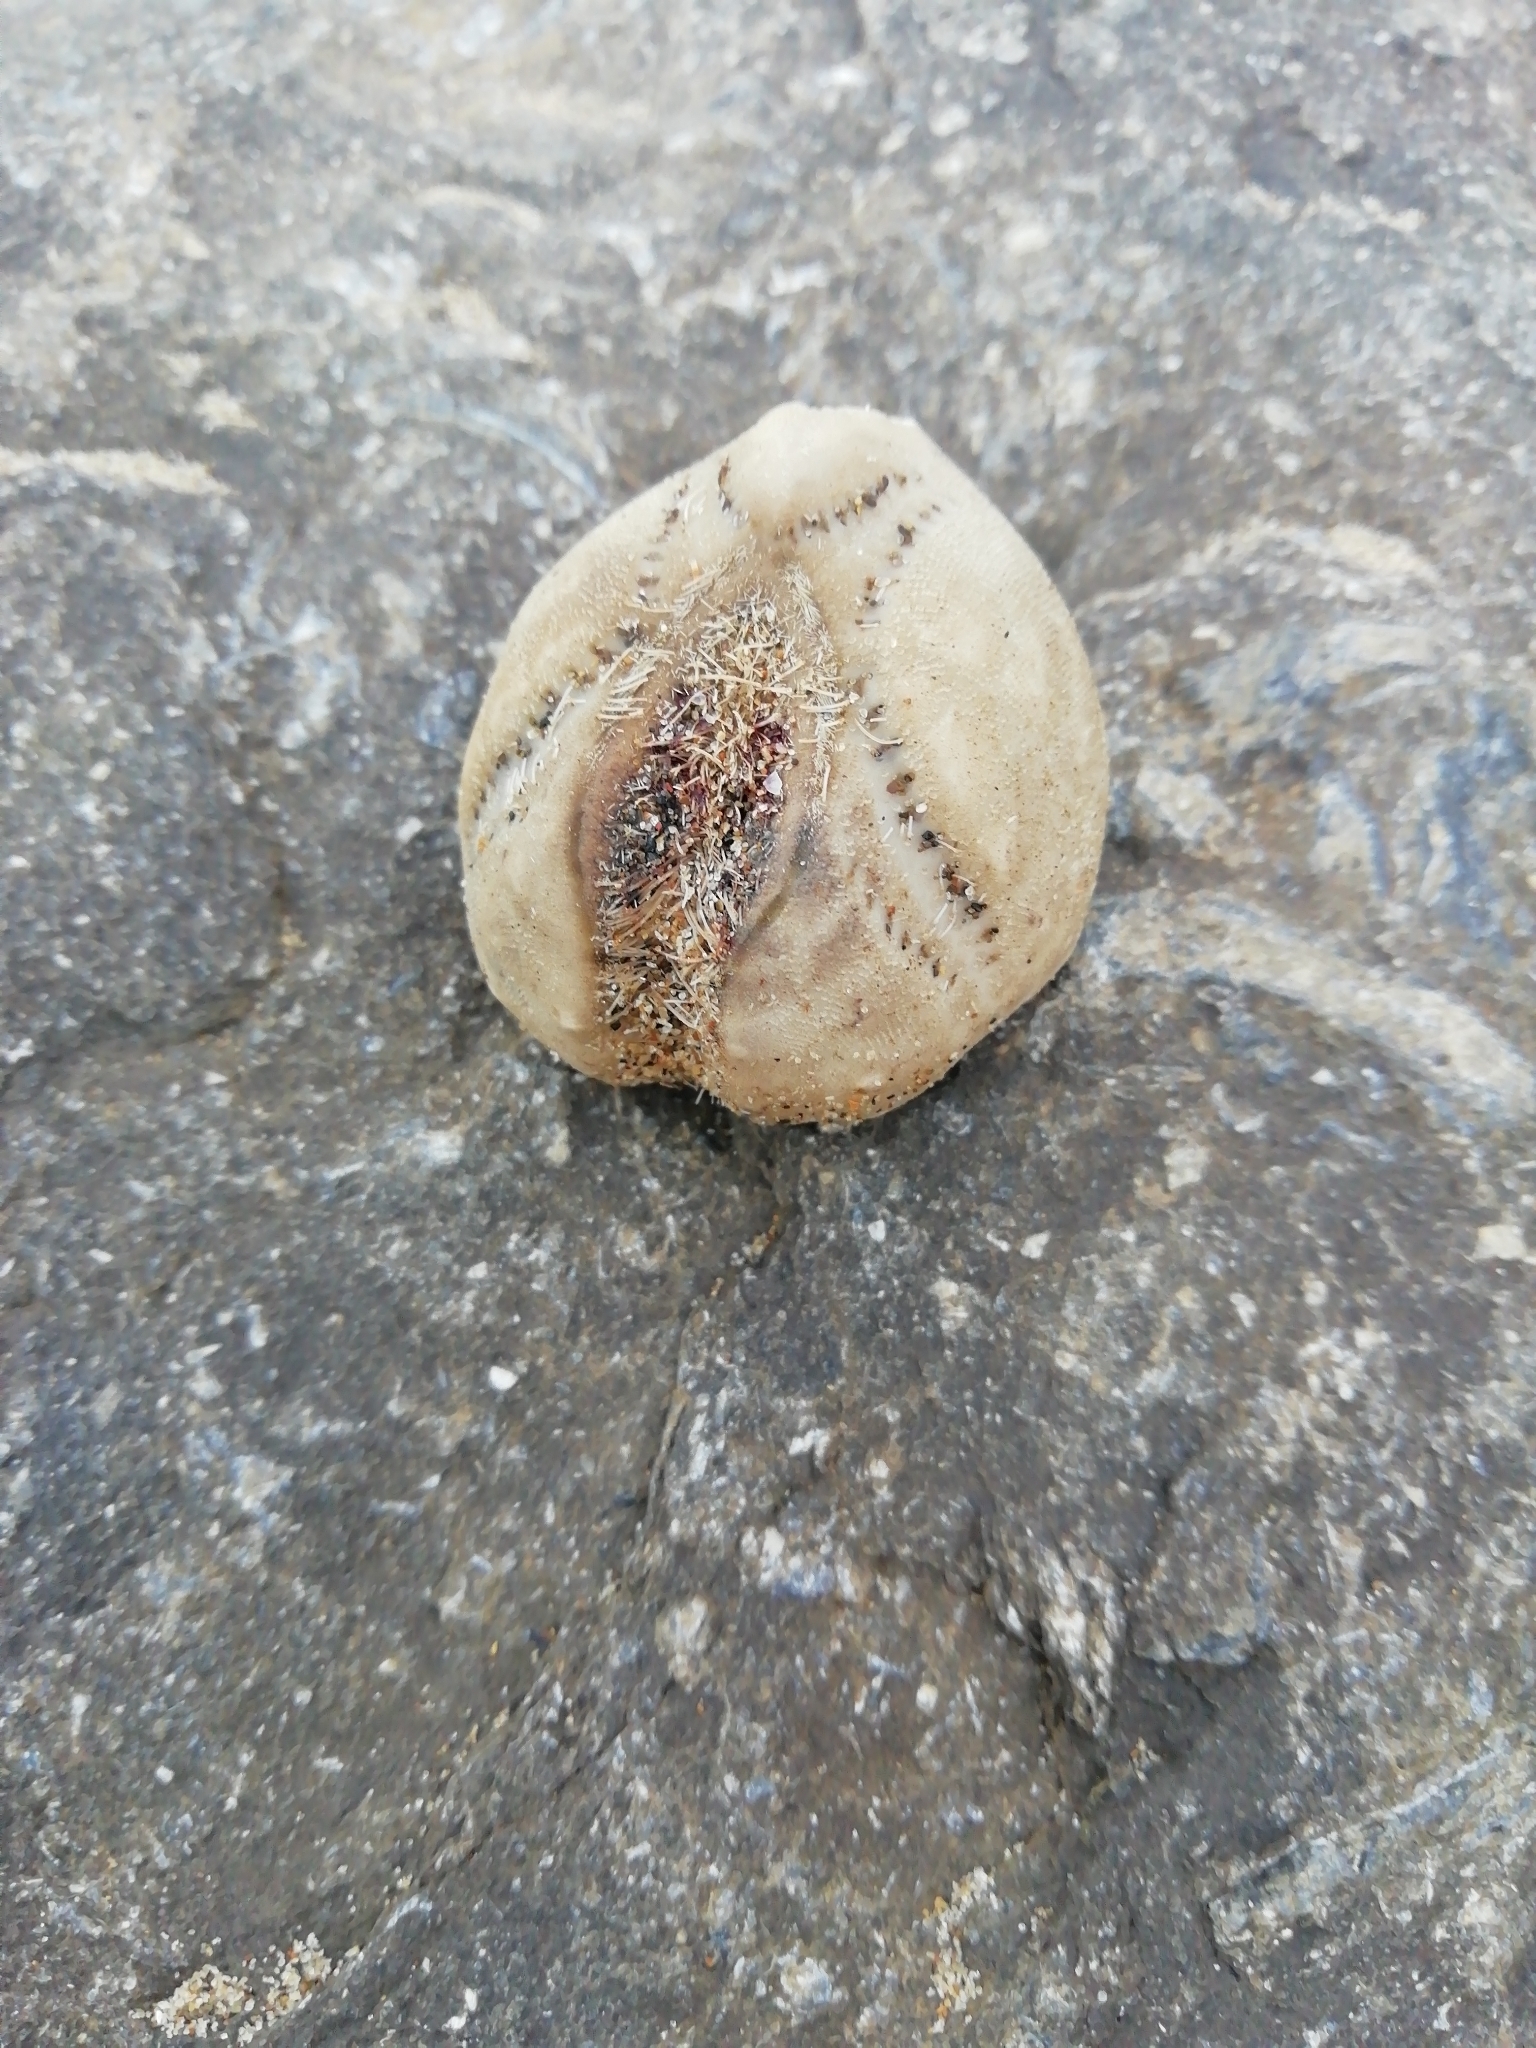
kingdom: Animalia
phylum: Echinodermata
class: Echinoidea
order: Spatangoida
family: Loveniidae
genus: Echinocardium
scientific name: Echinocardium cordatum
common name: Heart-urchin
